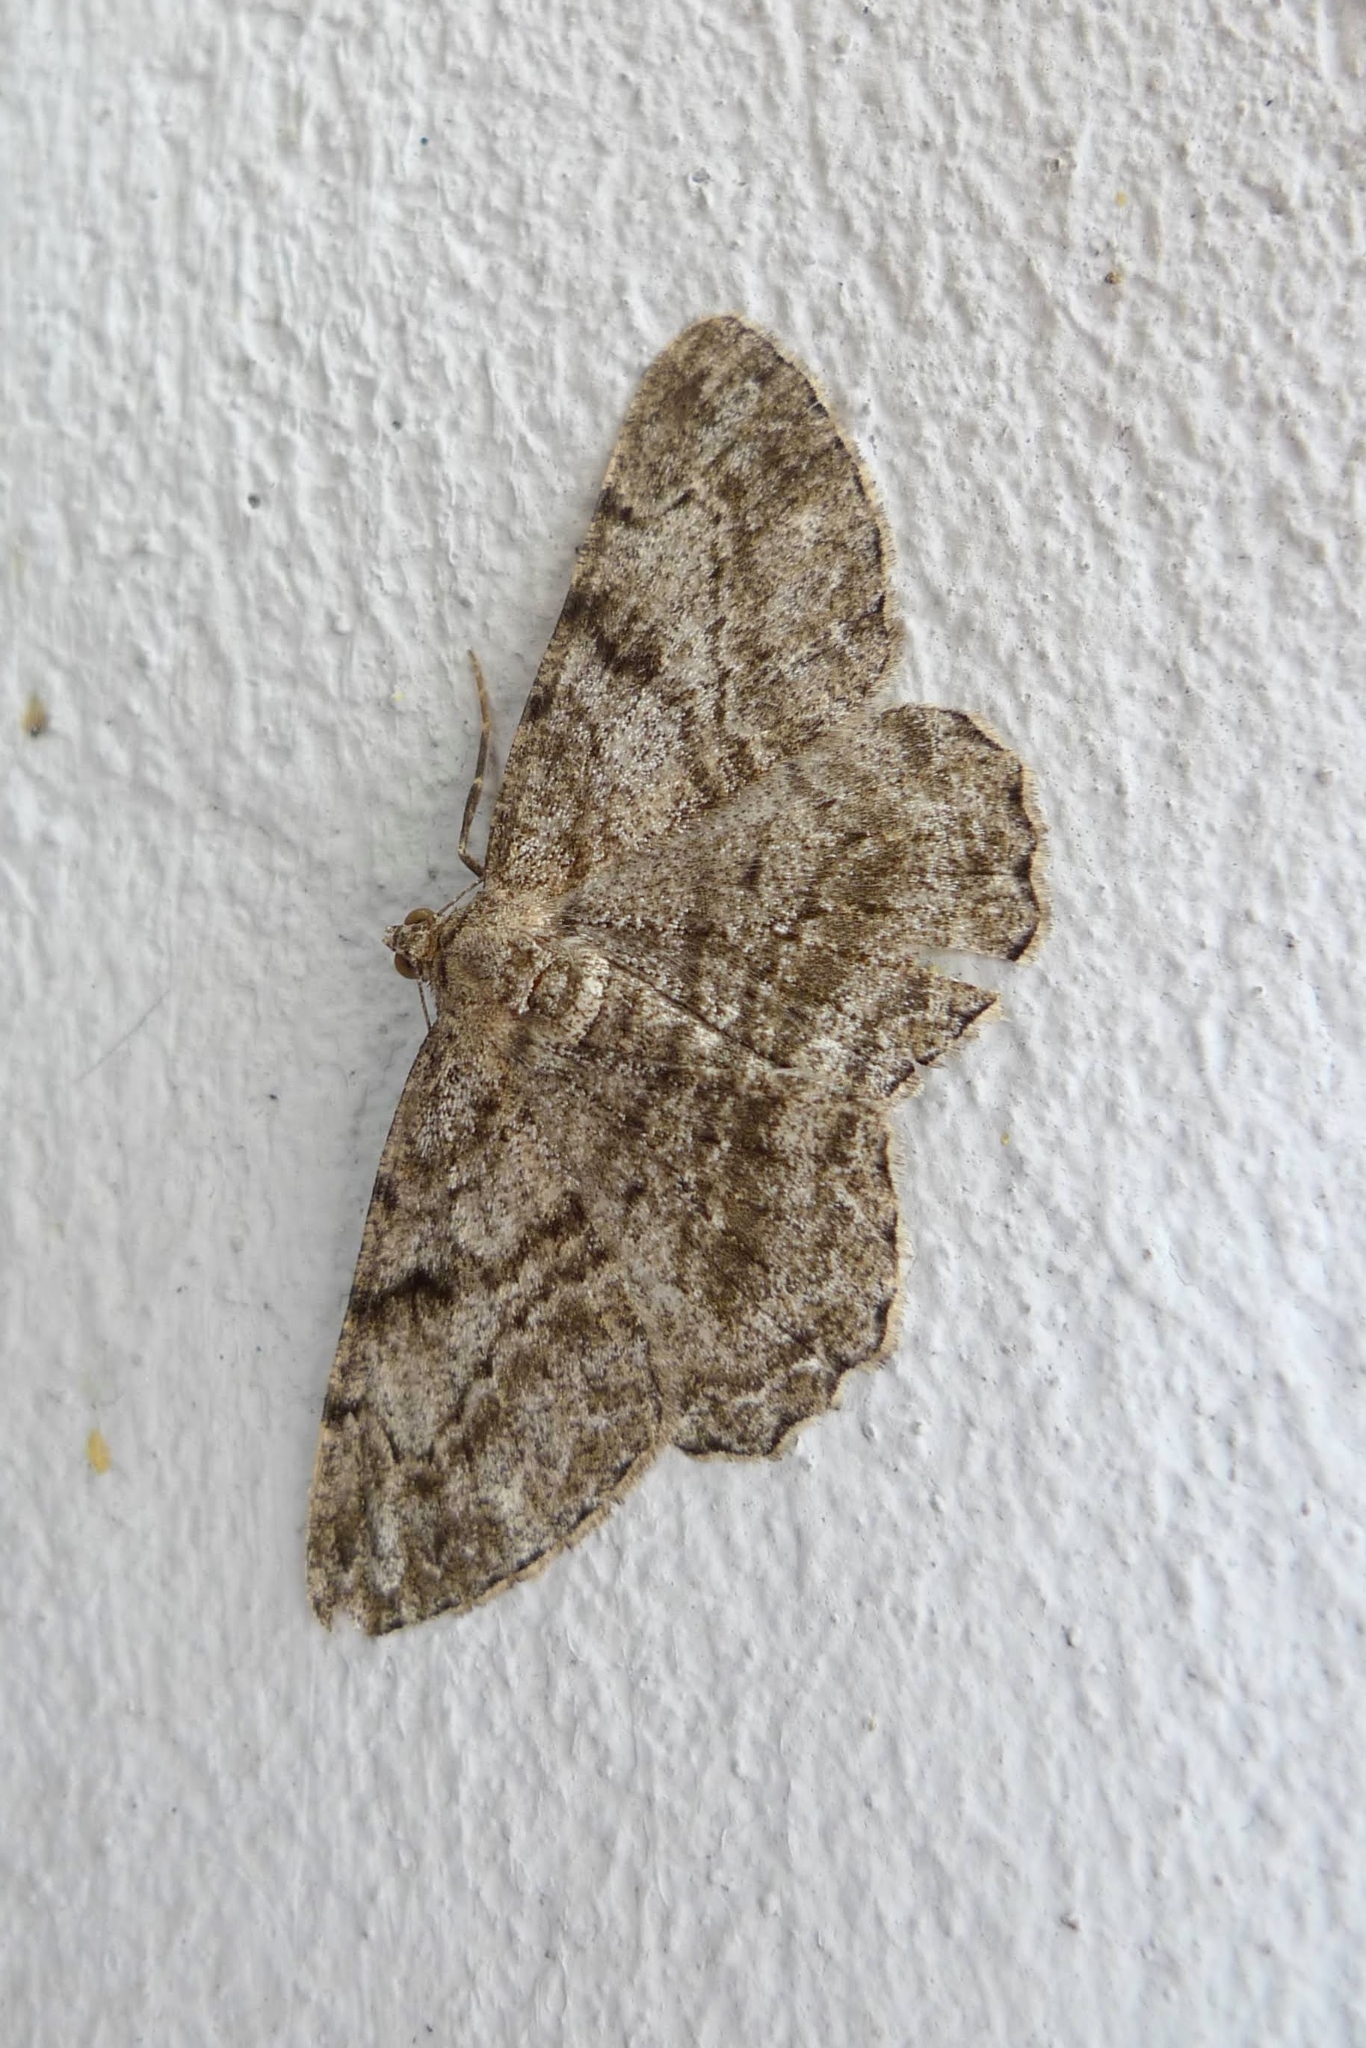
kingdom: Animalia
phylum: Arthropoda
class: Insecta
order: Lepidoptera
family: Geometridae
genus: Peribatodes
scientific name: Peribatodes rhomboidaria
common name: Willow beauty
